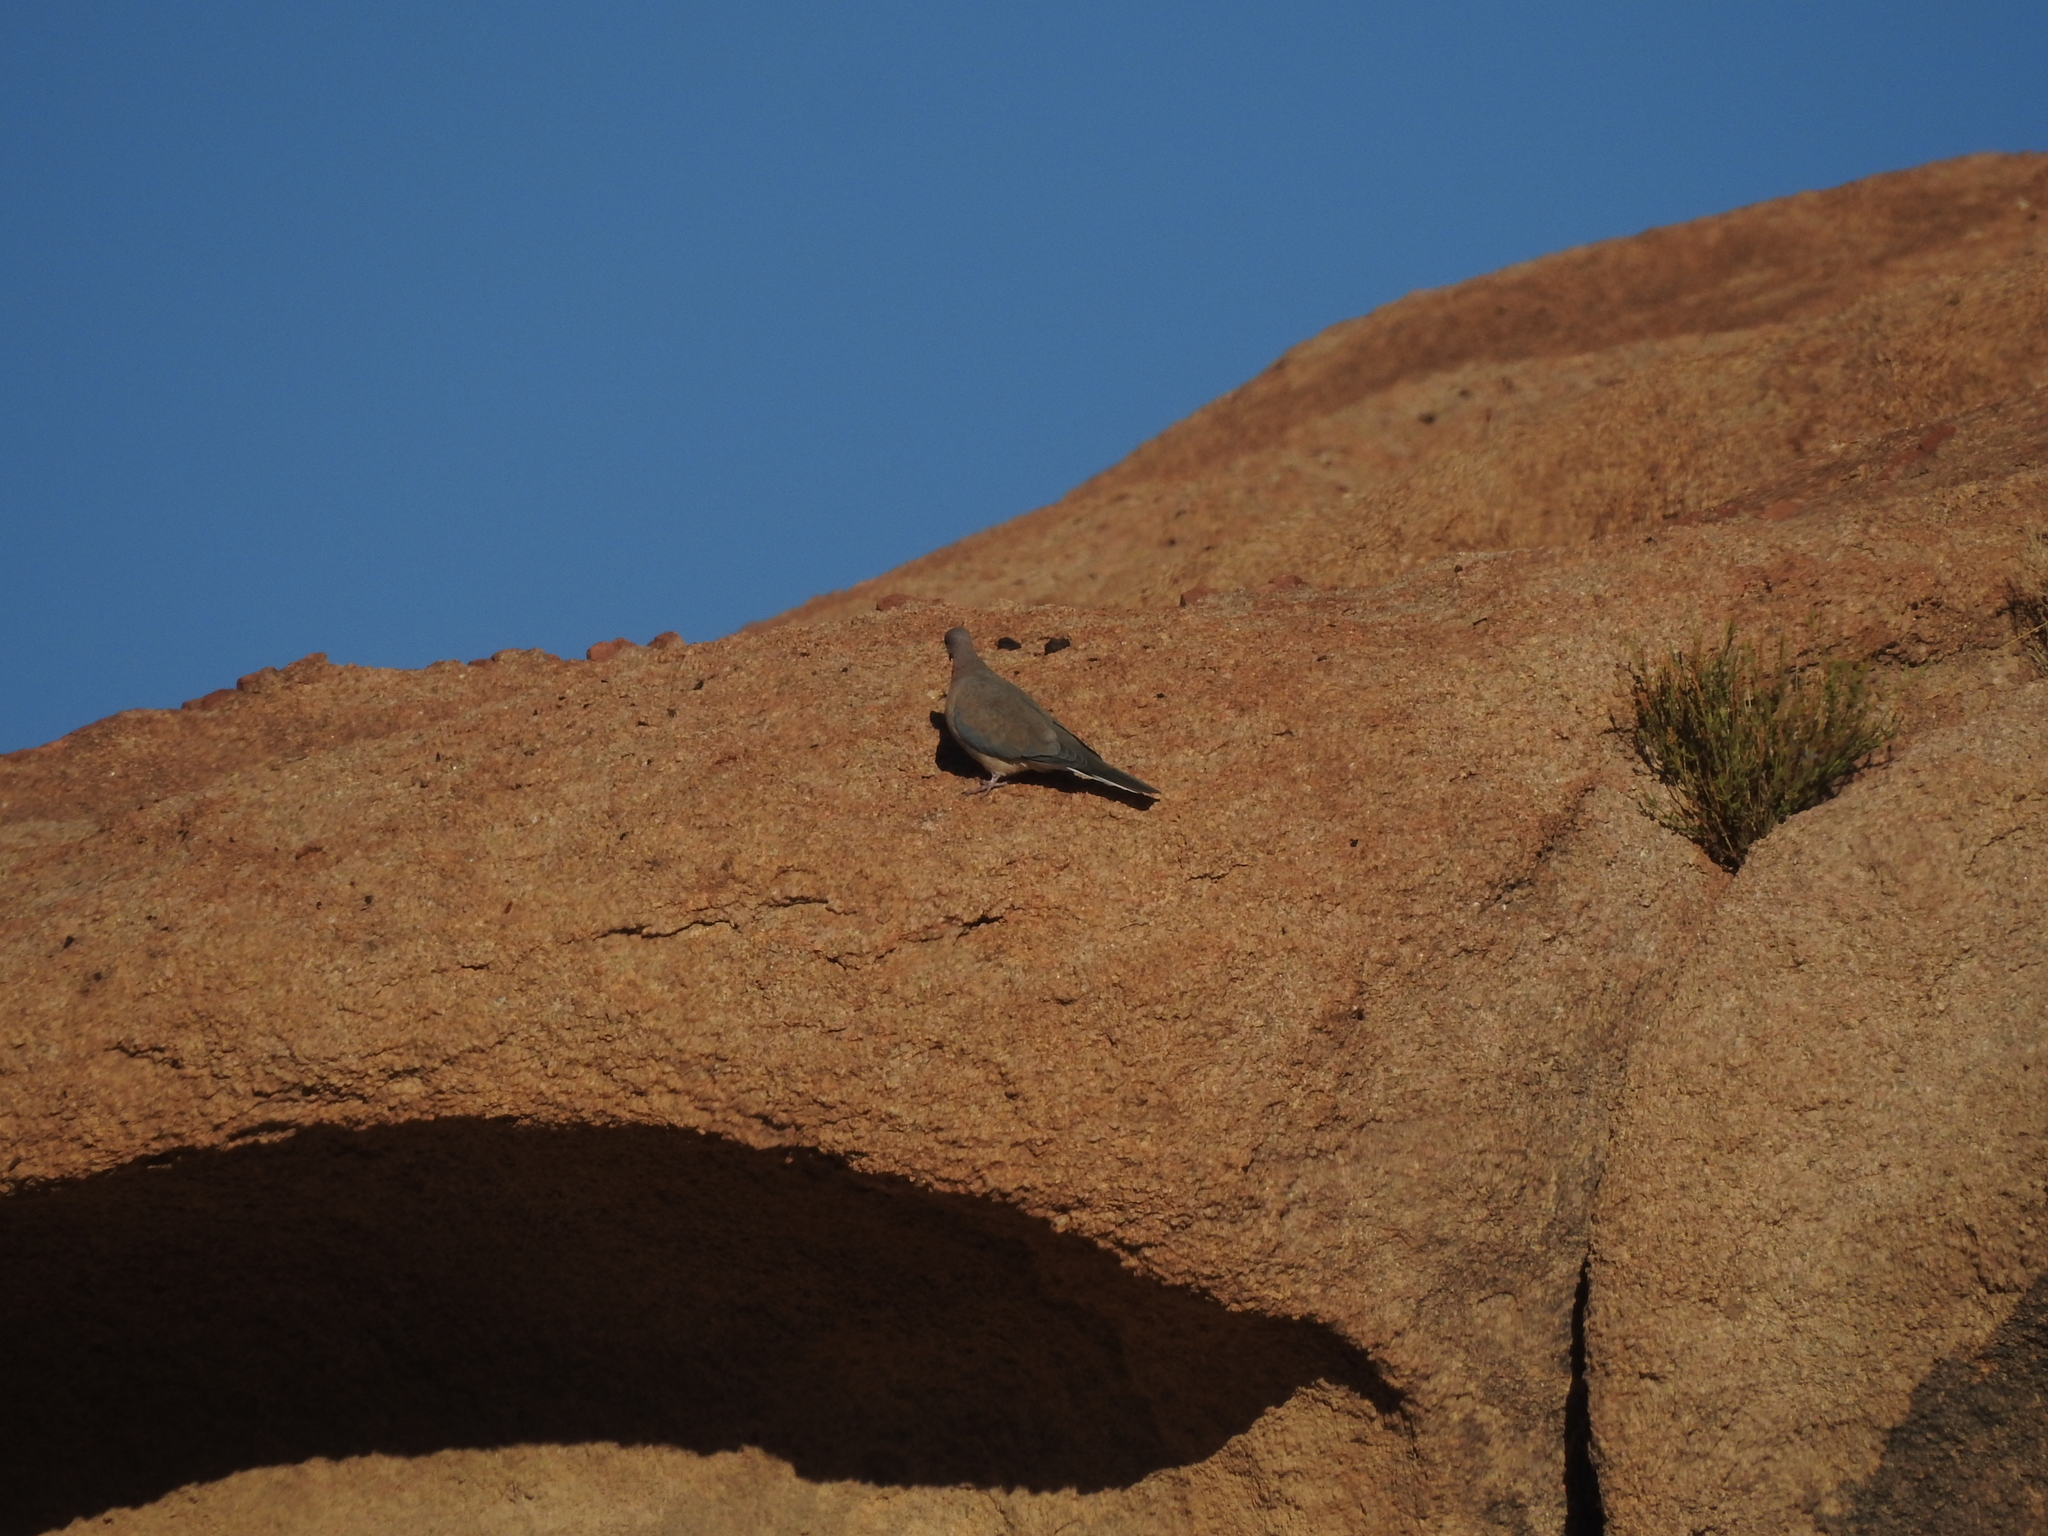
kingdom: Animalia
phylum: Chordata
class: Aves
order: Columbiformes
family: Columbidae
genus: Spilopelia
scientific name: Spilopelia senegalensis
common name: Laughing dove
